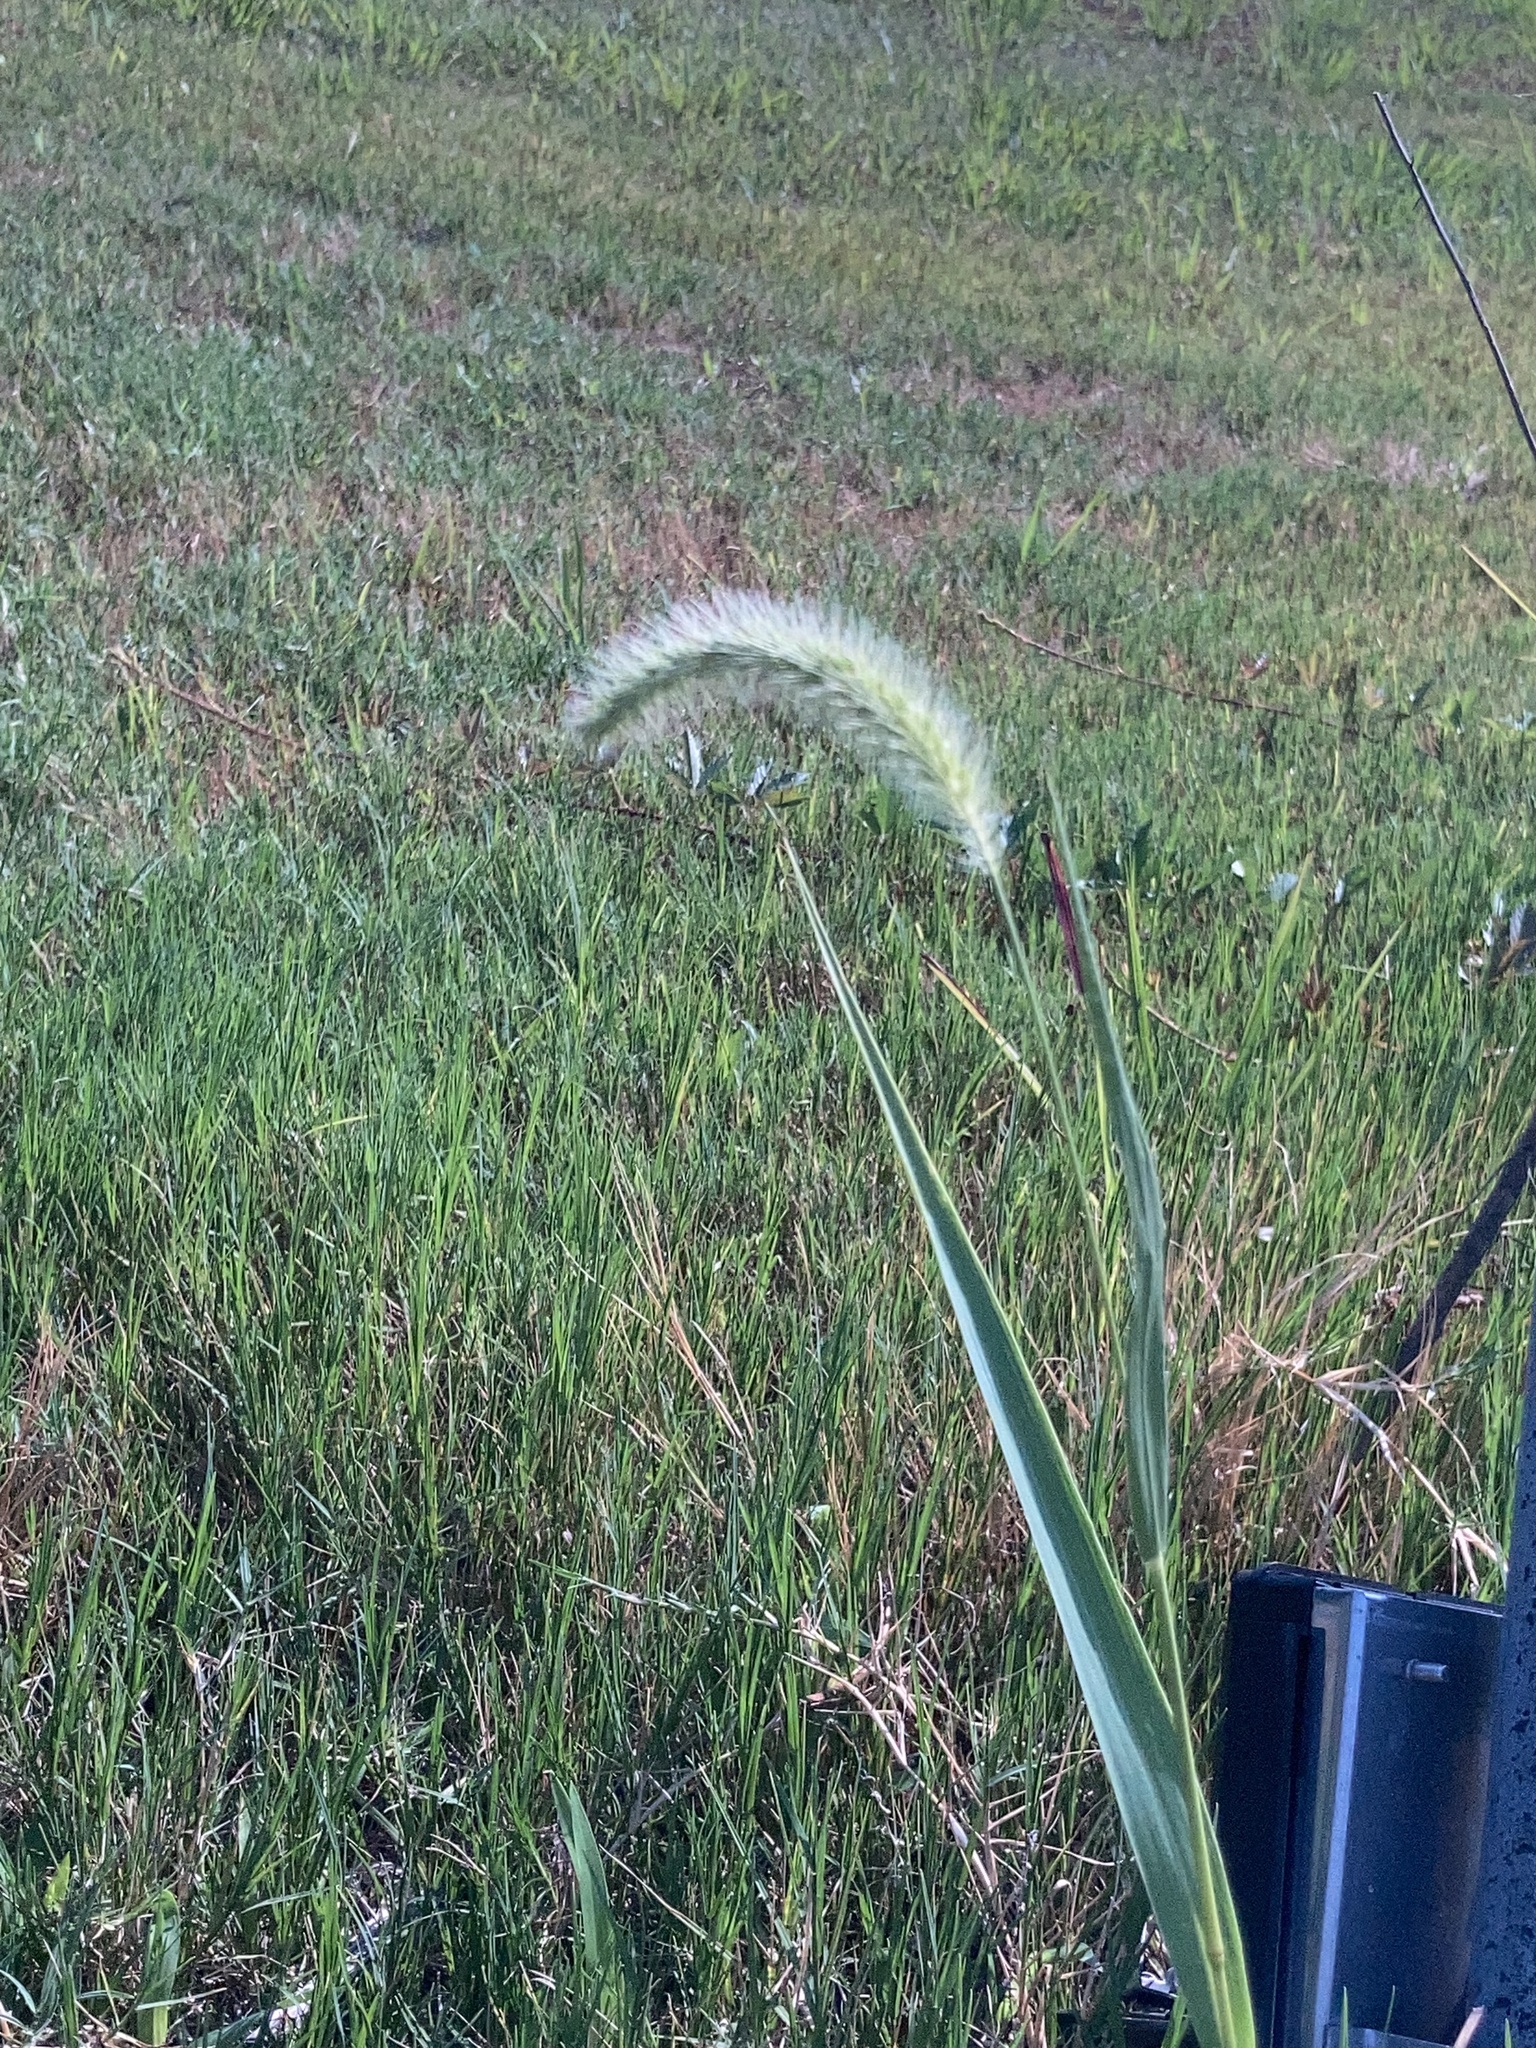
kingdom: Plantae
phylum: Tracheophyta
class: Liliopsida
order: Poales
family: Poaceae
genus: Setaria
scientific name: Setaria faberi
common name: Nodding bristle-grass
